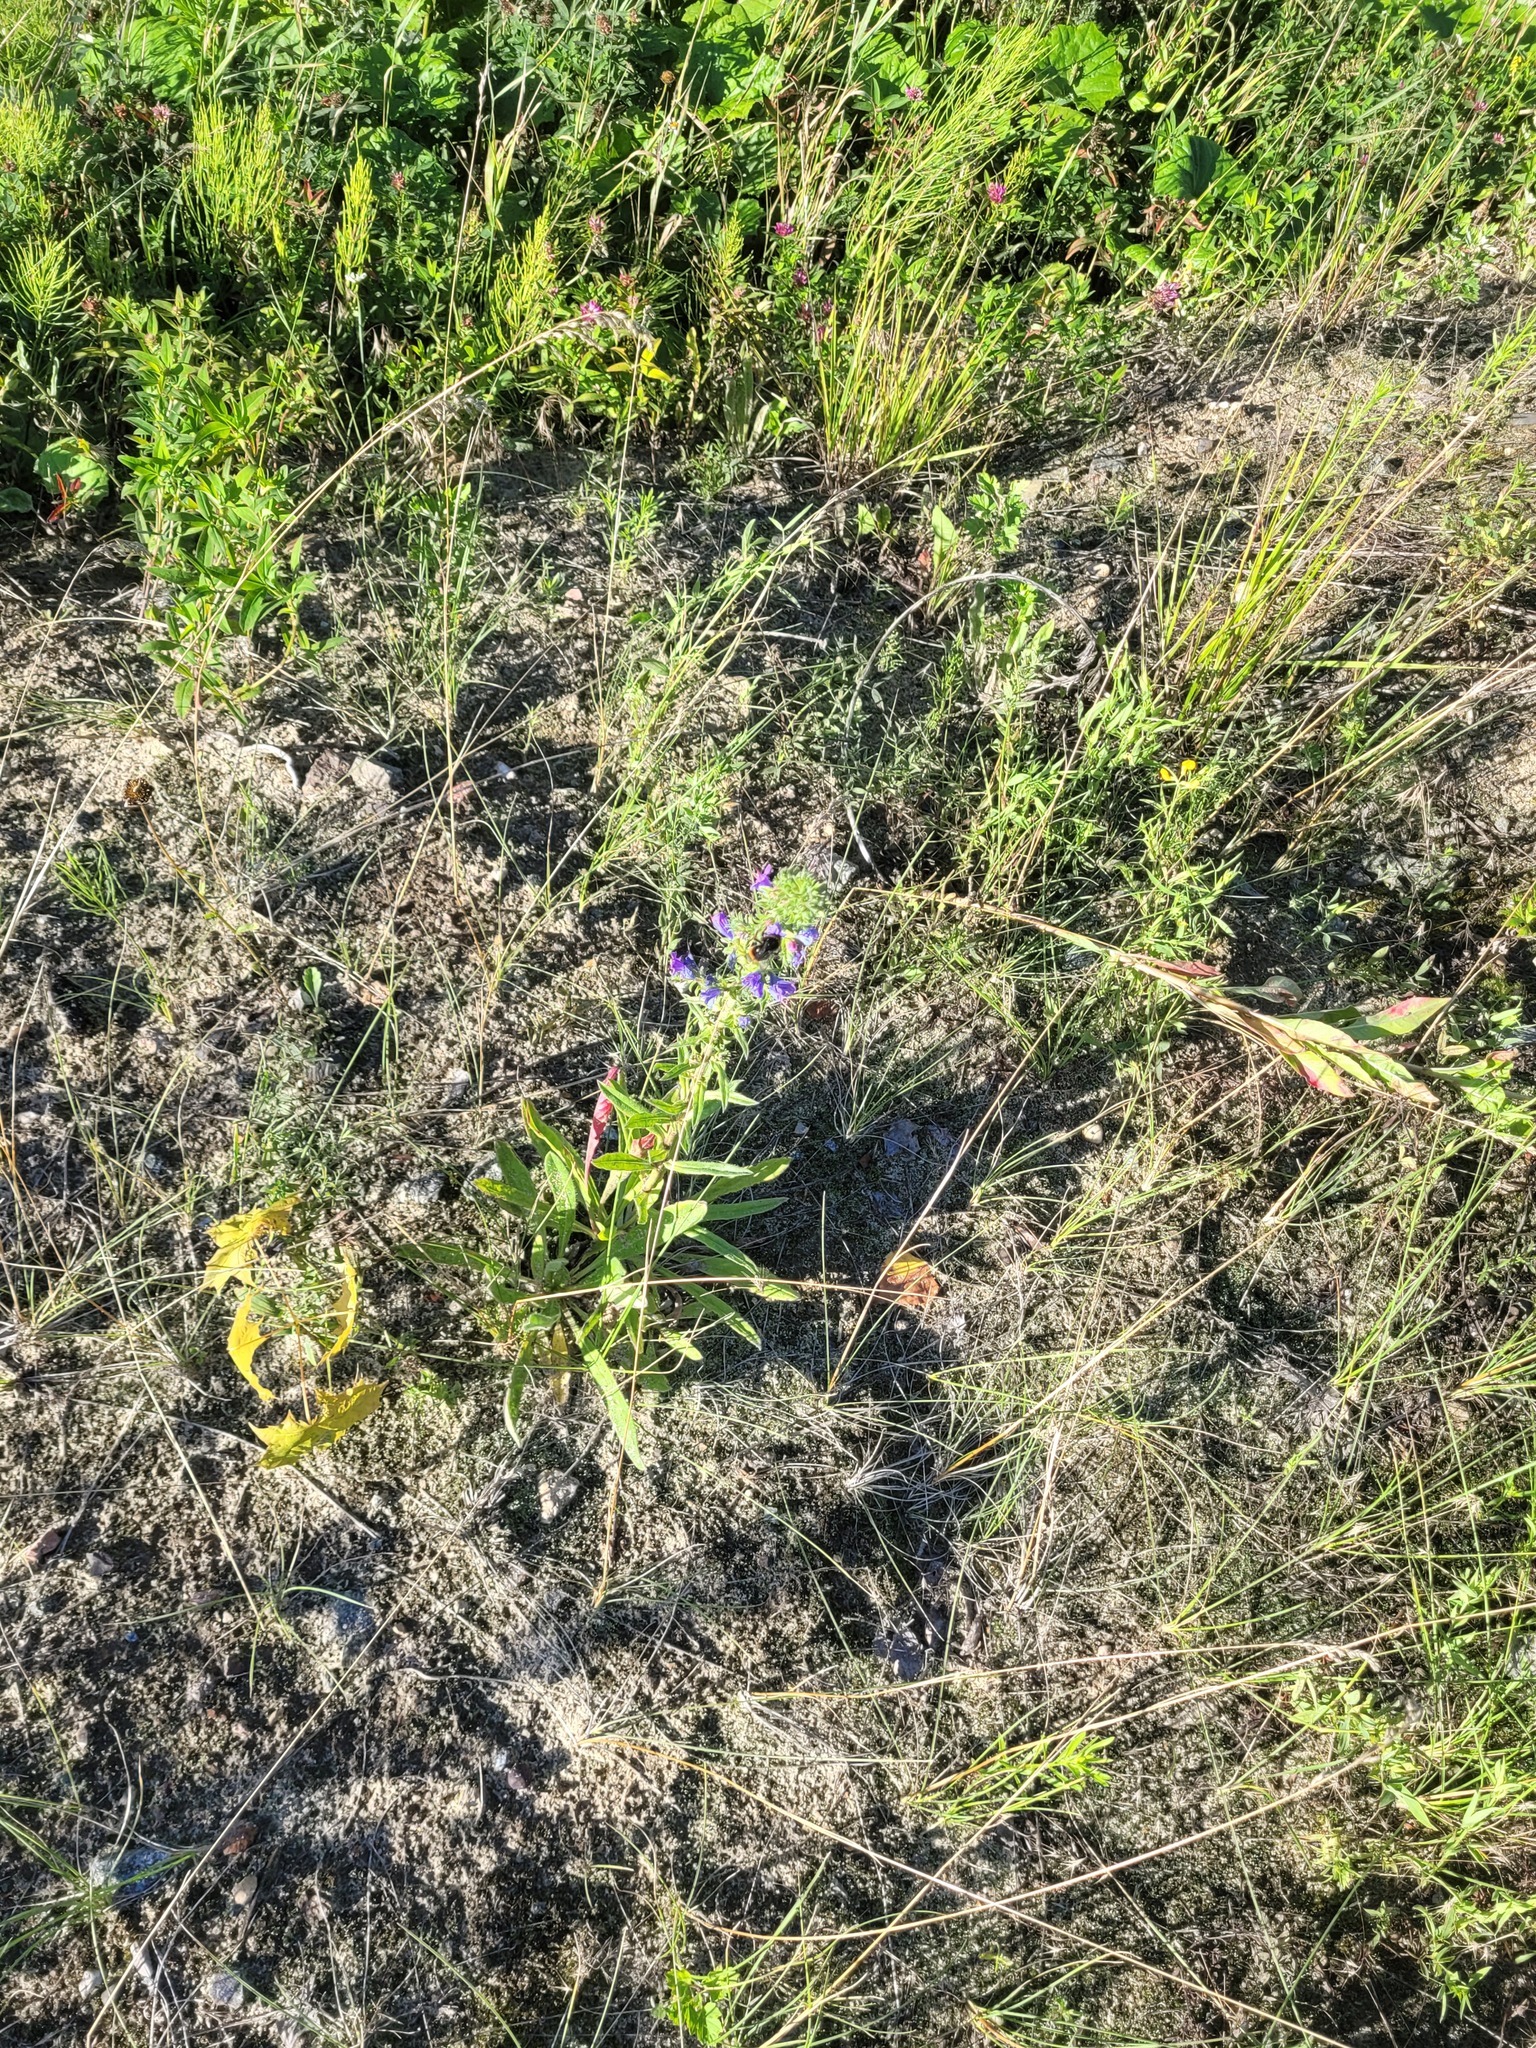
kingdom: Plantae
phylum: Tracheophyta
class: Magnoliopsida
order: Boraginales
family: Boraginaceae
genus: Echium
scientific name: Echium vulgare
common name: Common viper's bugloss
